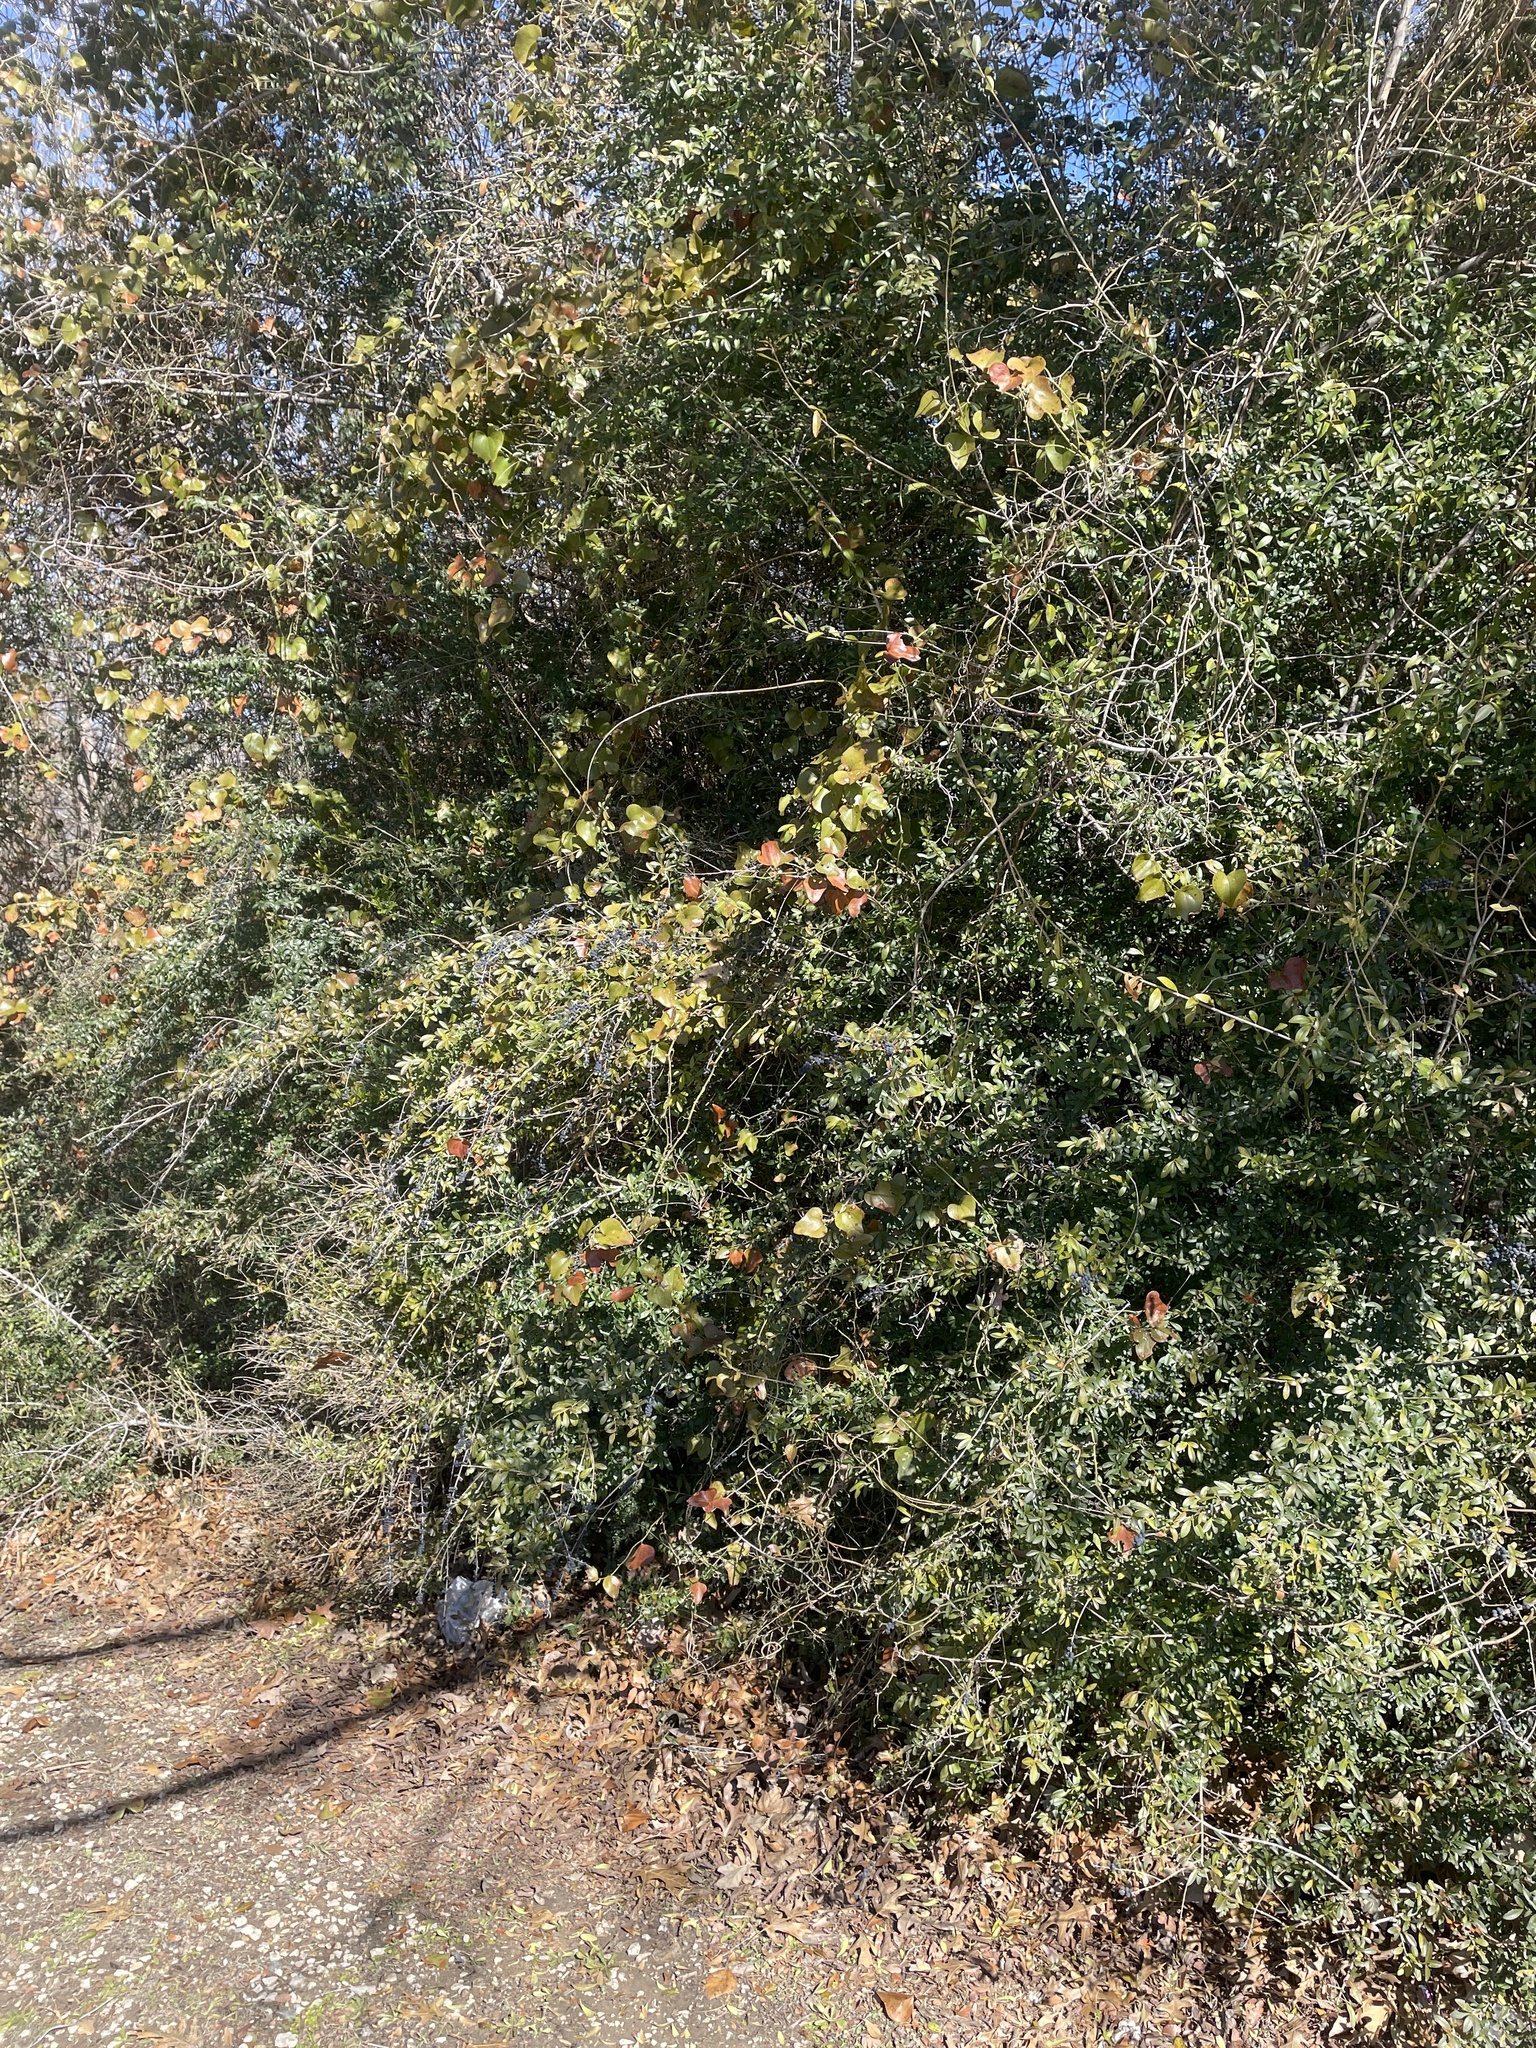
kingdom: Plantae
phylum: Tracheophyta
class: Magnoliopsida
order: Lamiales
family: Oleaceae
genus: Ligustrum
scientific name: Ligustrum quihoui
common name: Waxyleaf privet
